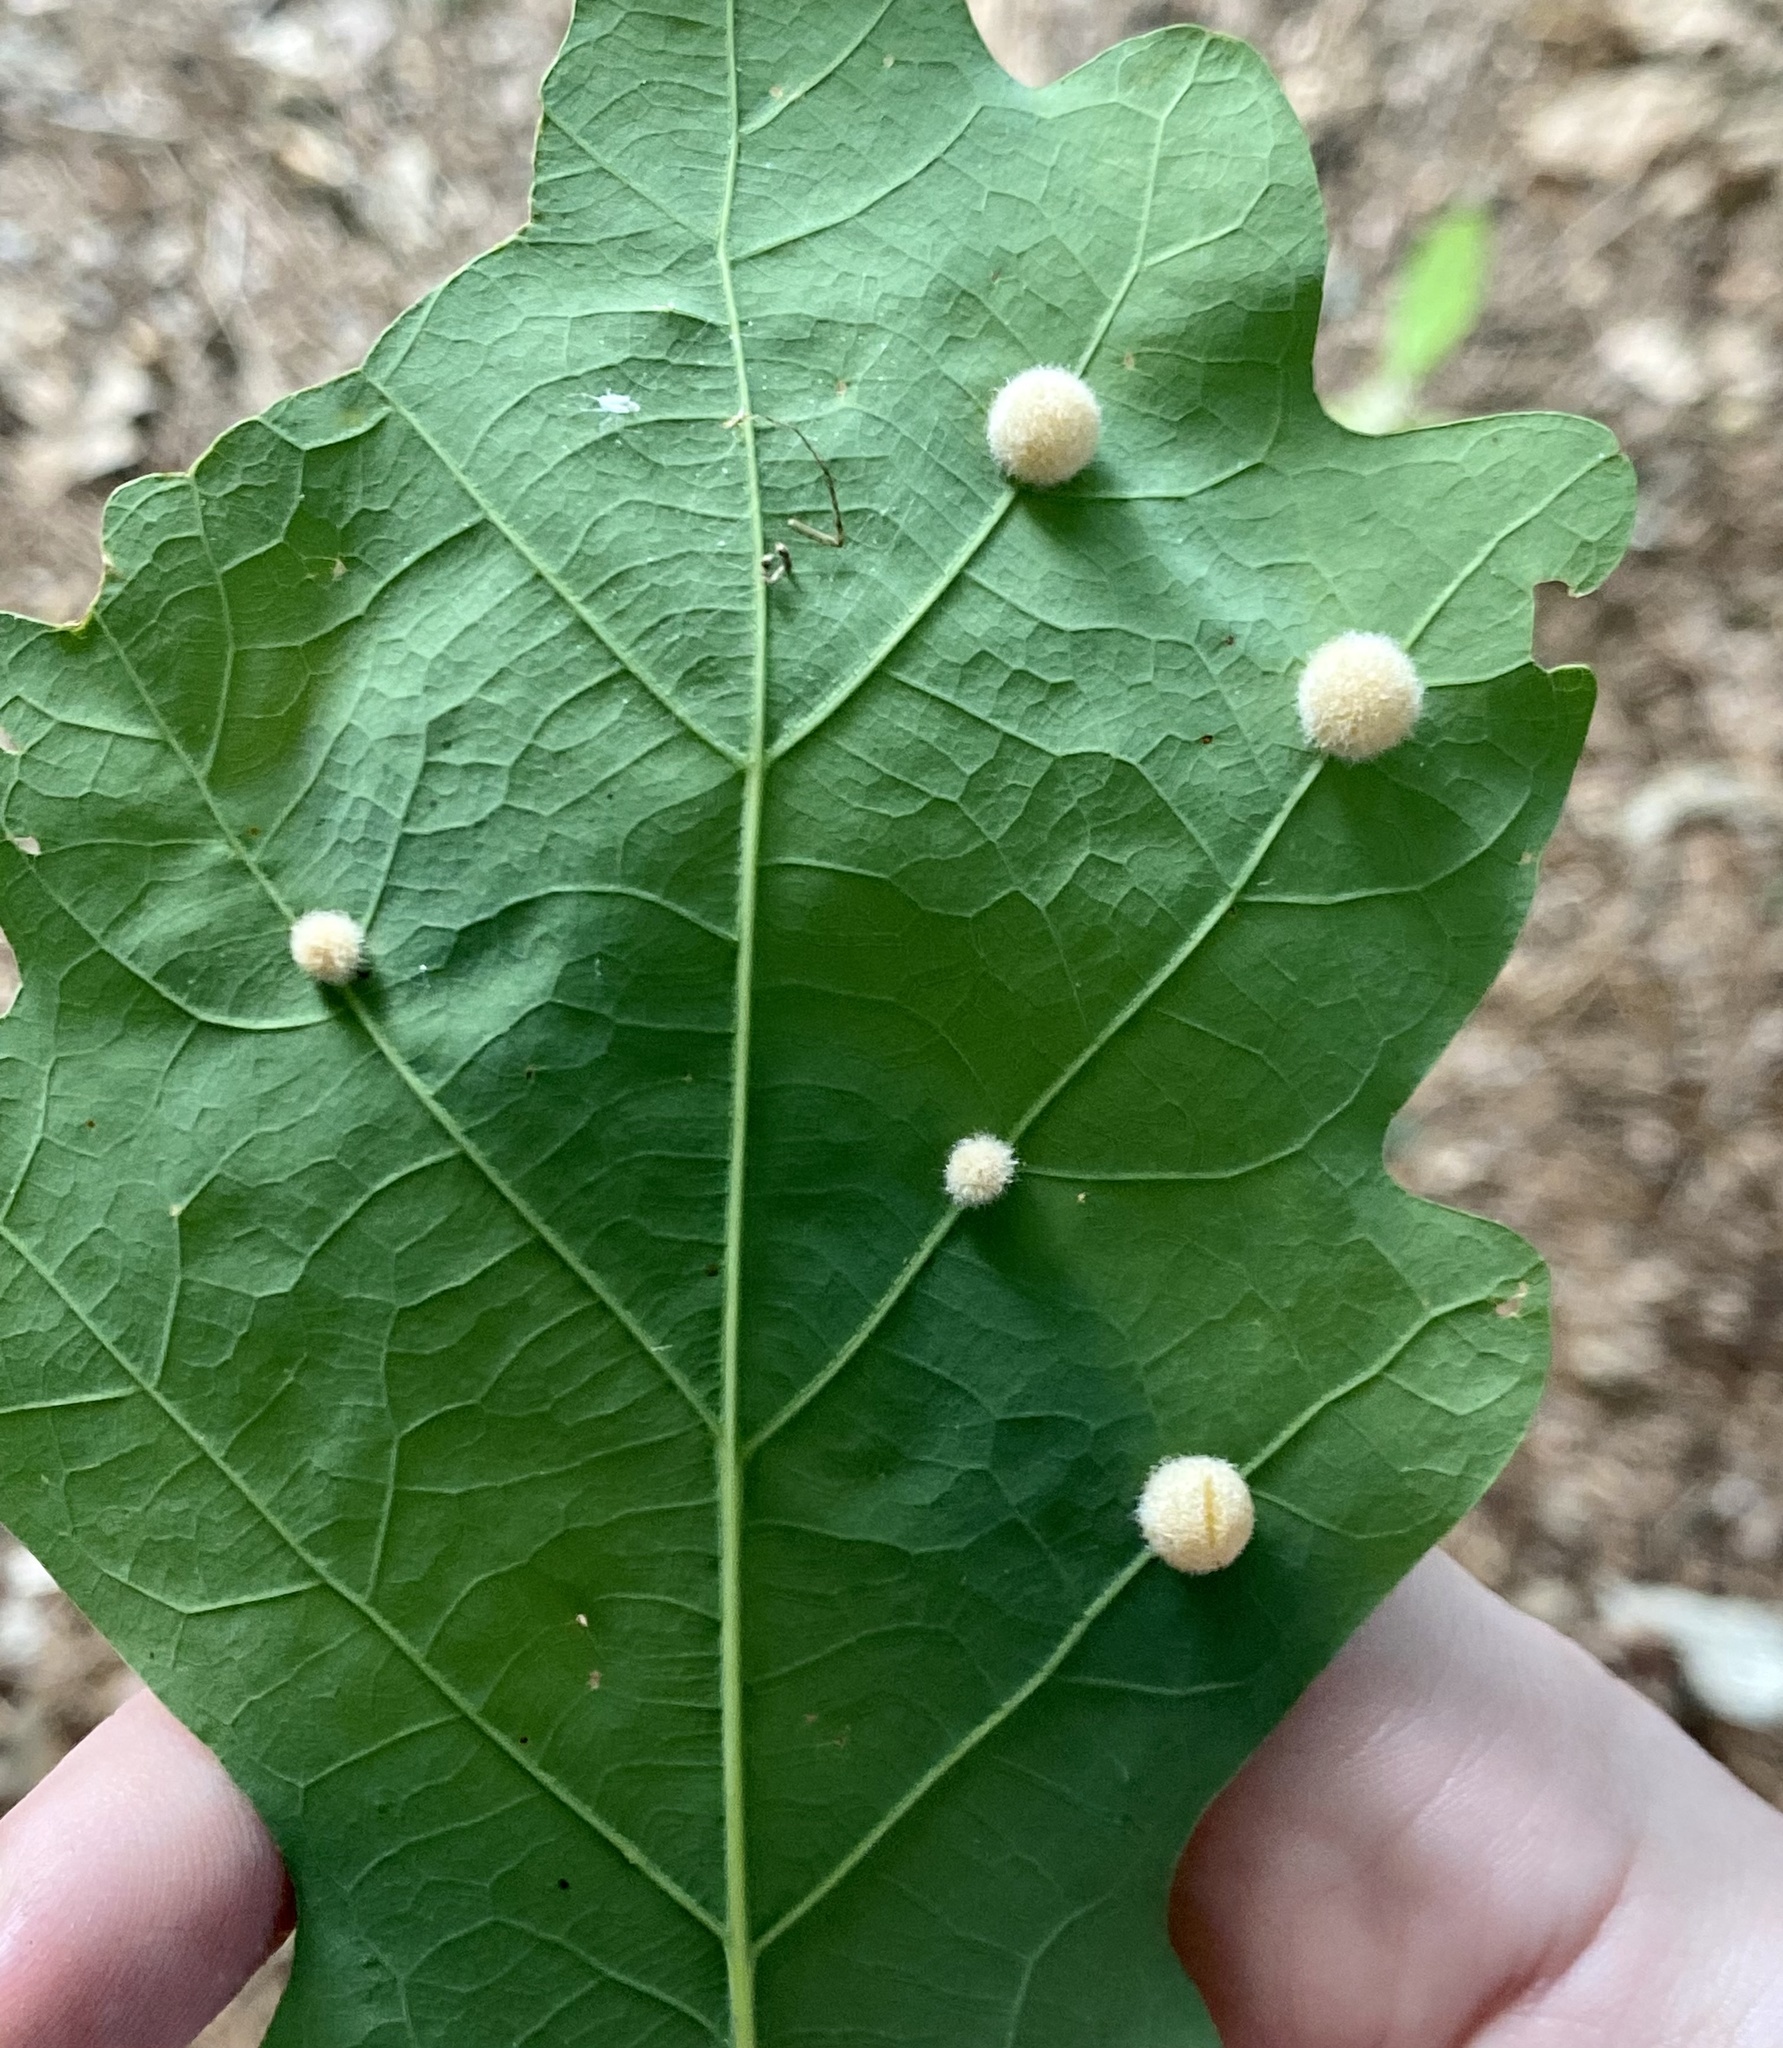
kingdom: Animalia
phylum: Arthropoda
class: Insecta
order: Hymenoptera
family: Cynipidae
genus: Philonix
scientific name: Philonix fulvicollis
